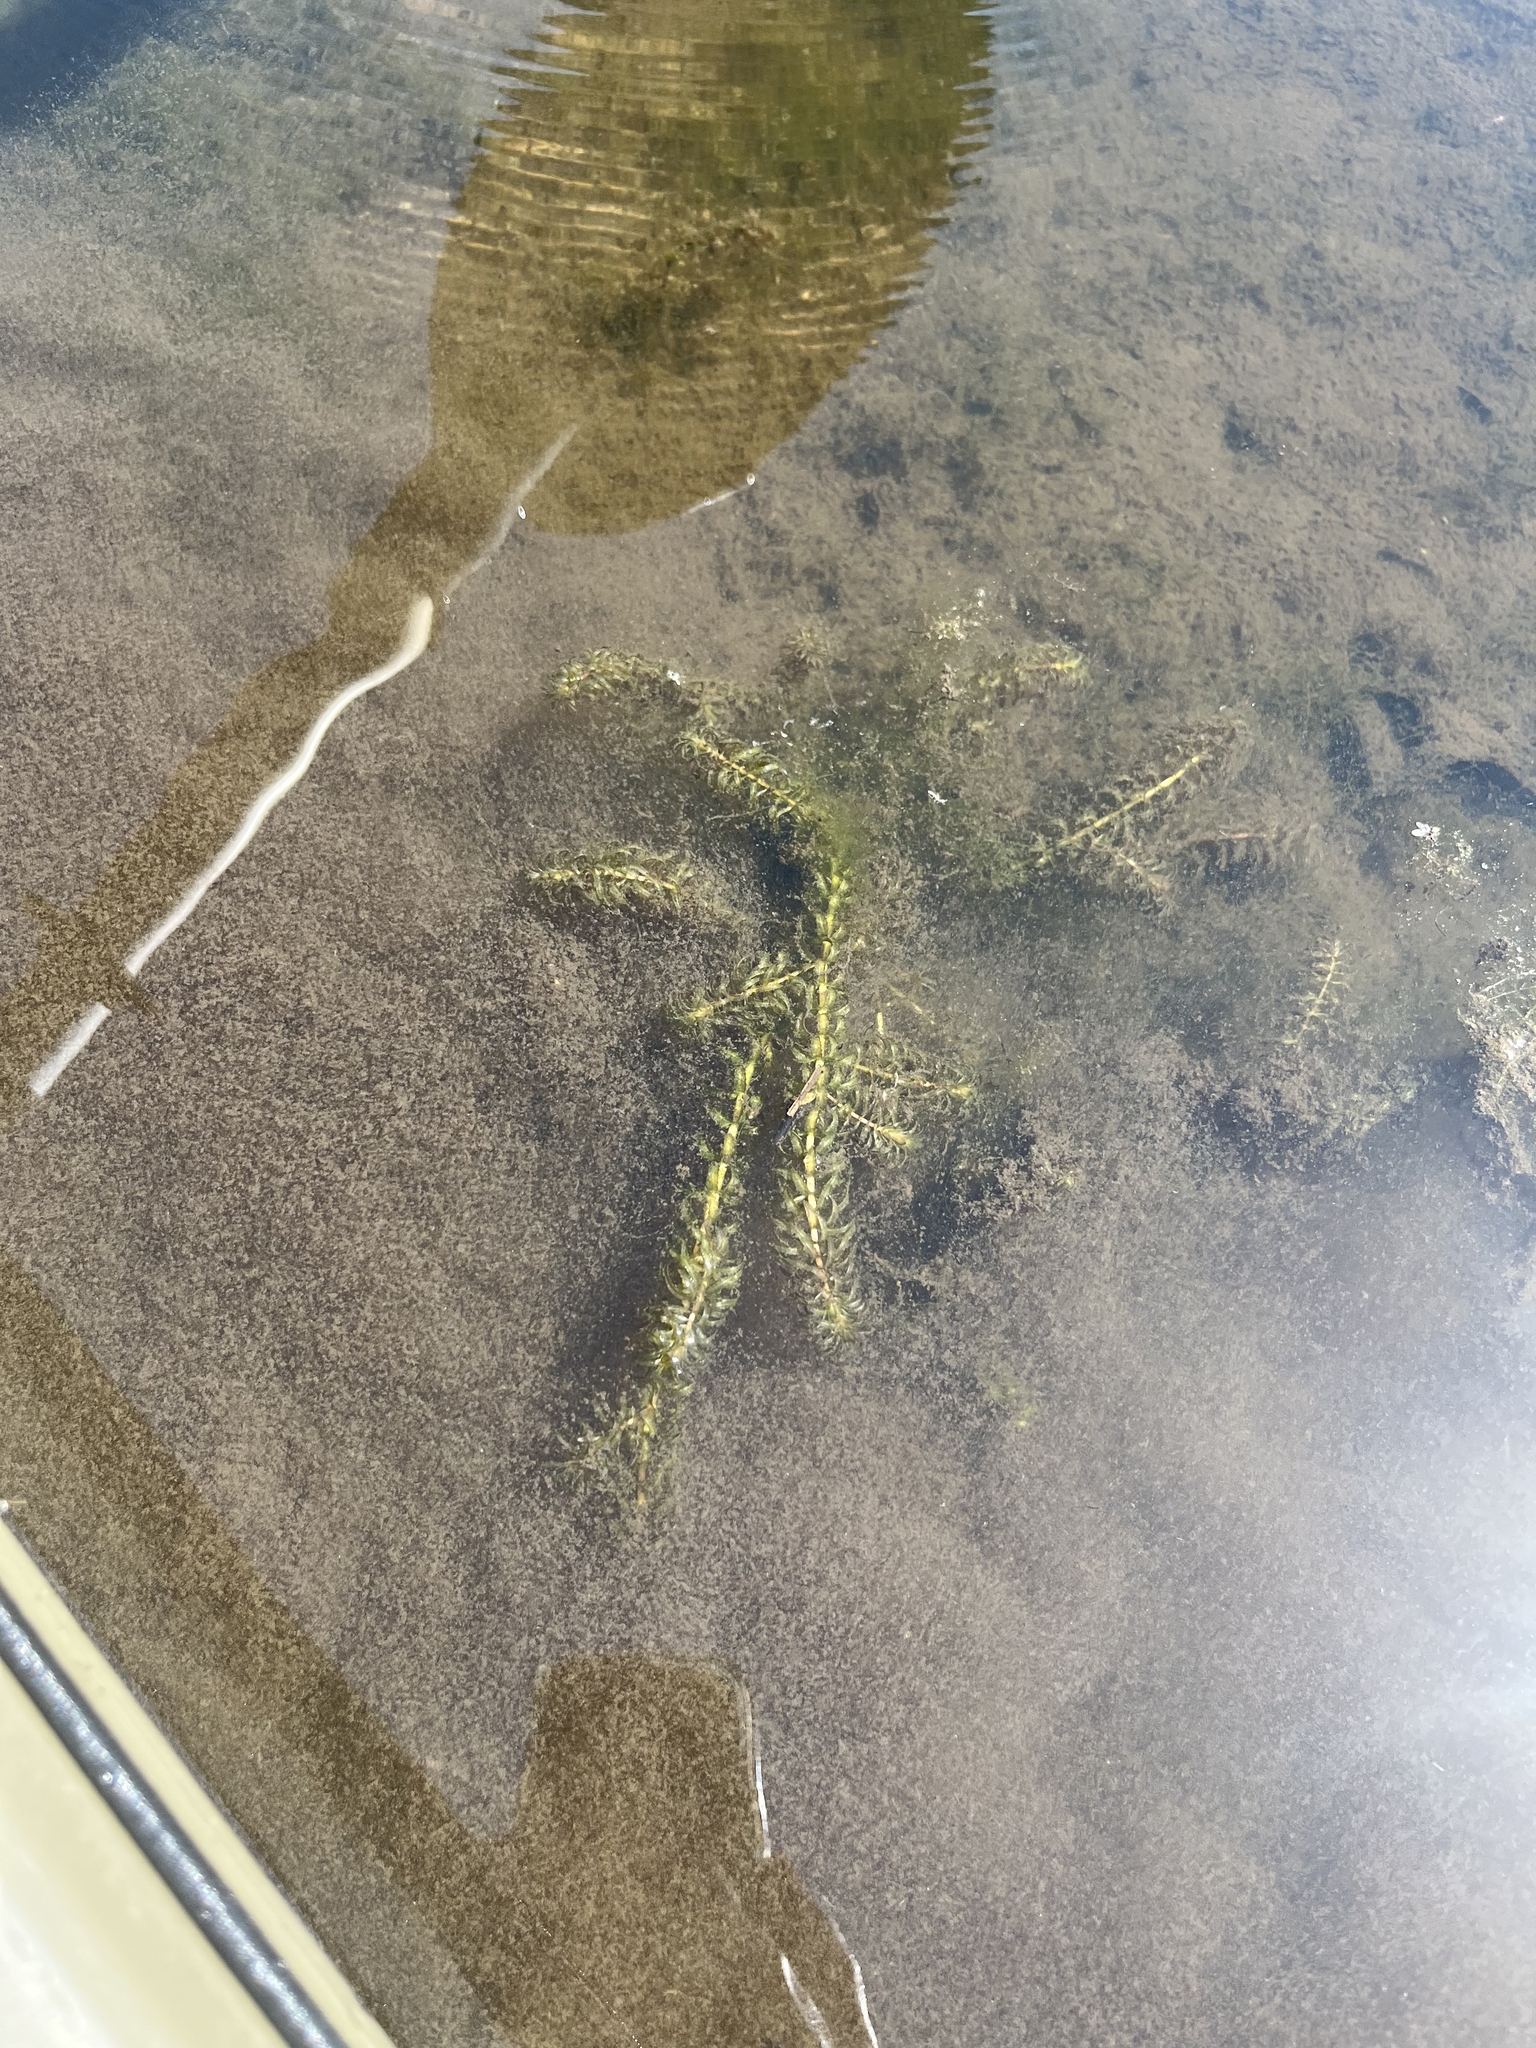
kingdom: Plantae
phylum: Tracheophyta
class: Liliopsida
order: Alismatales
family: Hydrocharitaceae
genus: Hydrilla
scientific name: Hydrilla verticillata
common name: Florida-elodea
